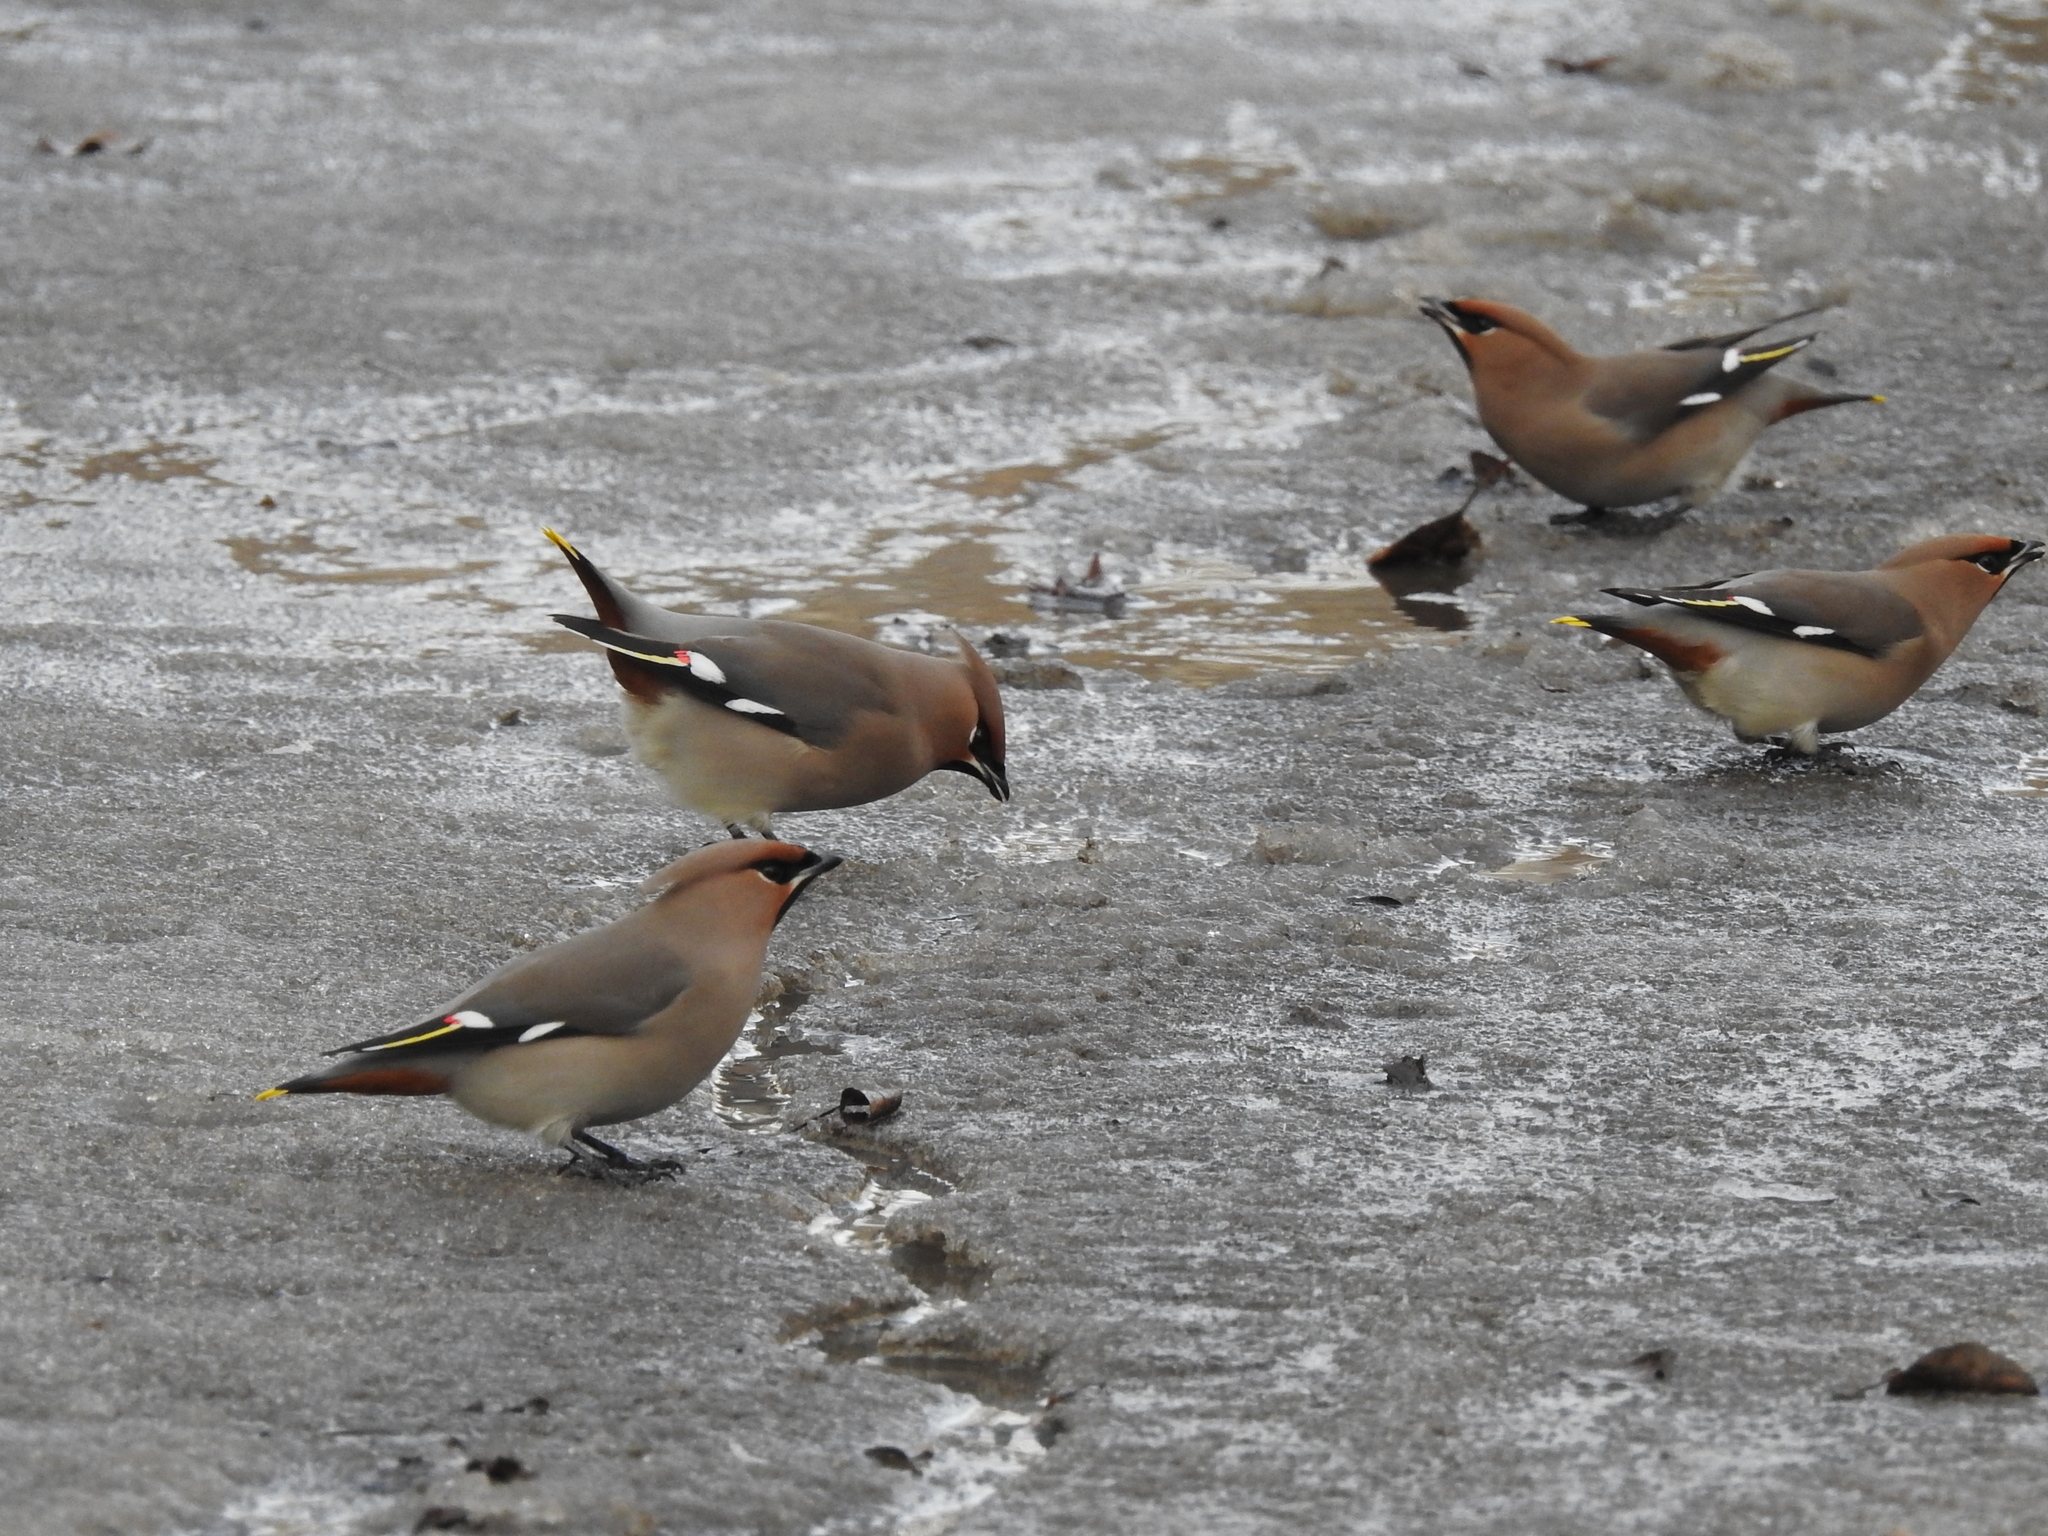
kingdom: Animalia
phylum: Chordata
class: Aves
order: Passeriformes
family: Bombycillidae
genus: Bombycilla
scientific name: Bombycilla garrulus
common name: Bohemian waxwing
